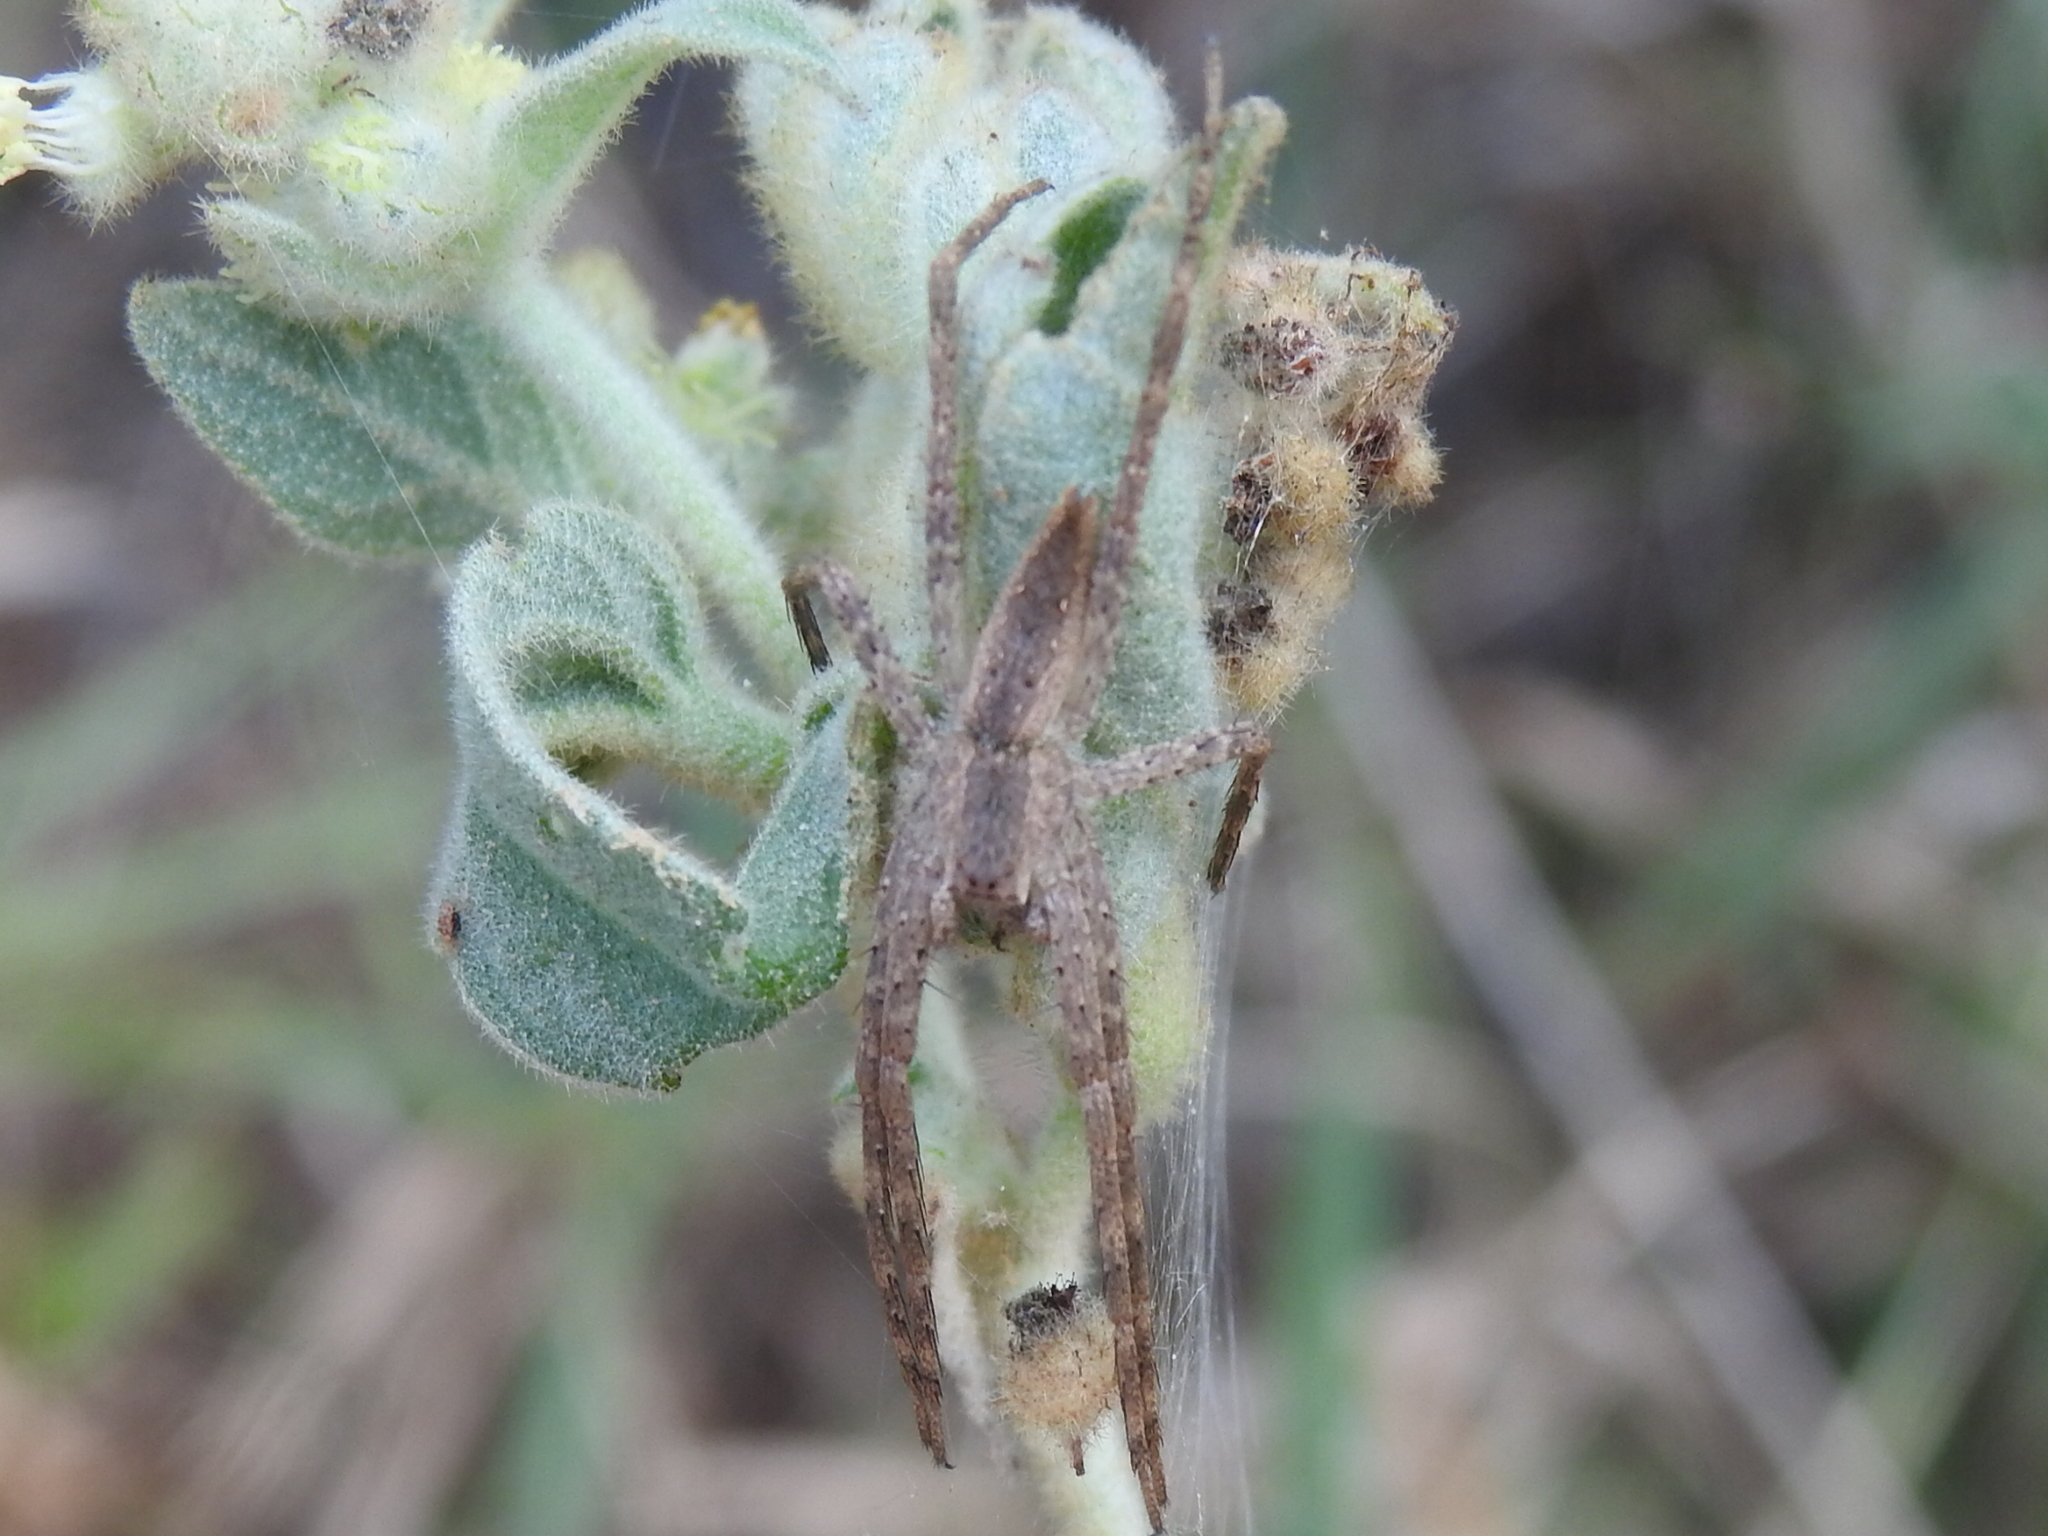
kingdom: Animalia
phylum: Arthropoda
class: Arachnida
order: Araneae
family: Pisauridae
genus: Pisaurina
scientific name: Pisaurina mira
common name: American nursery web spider
